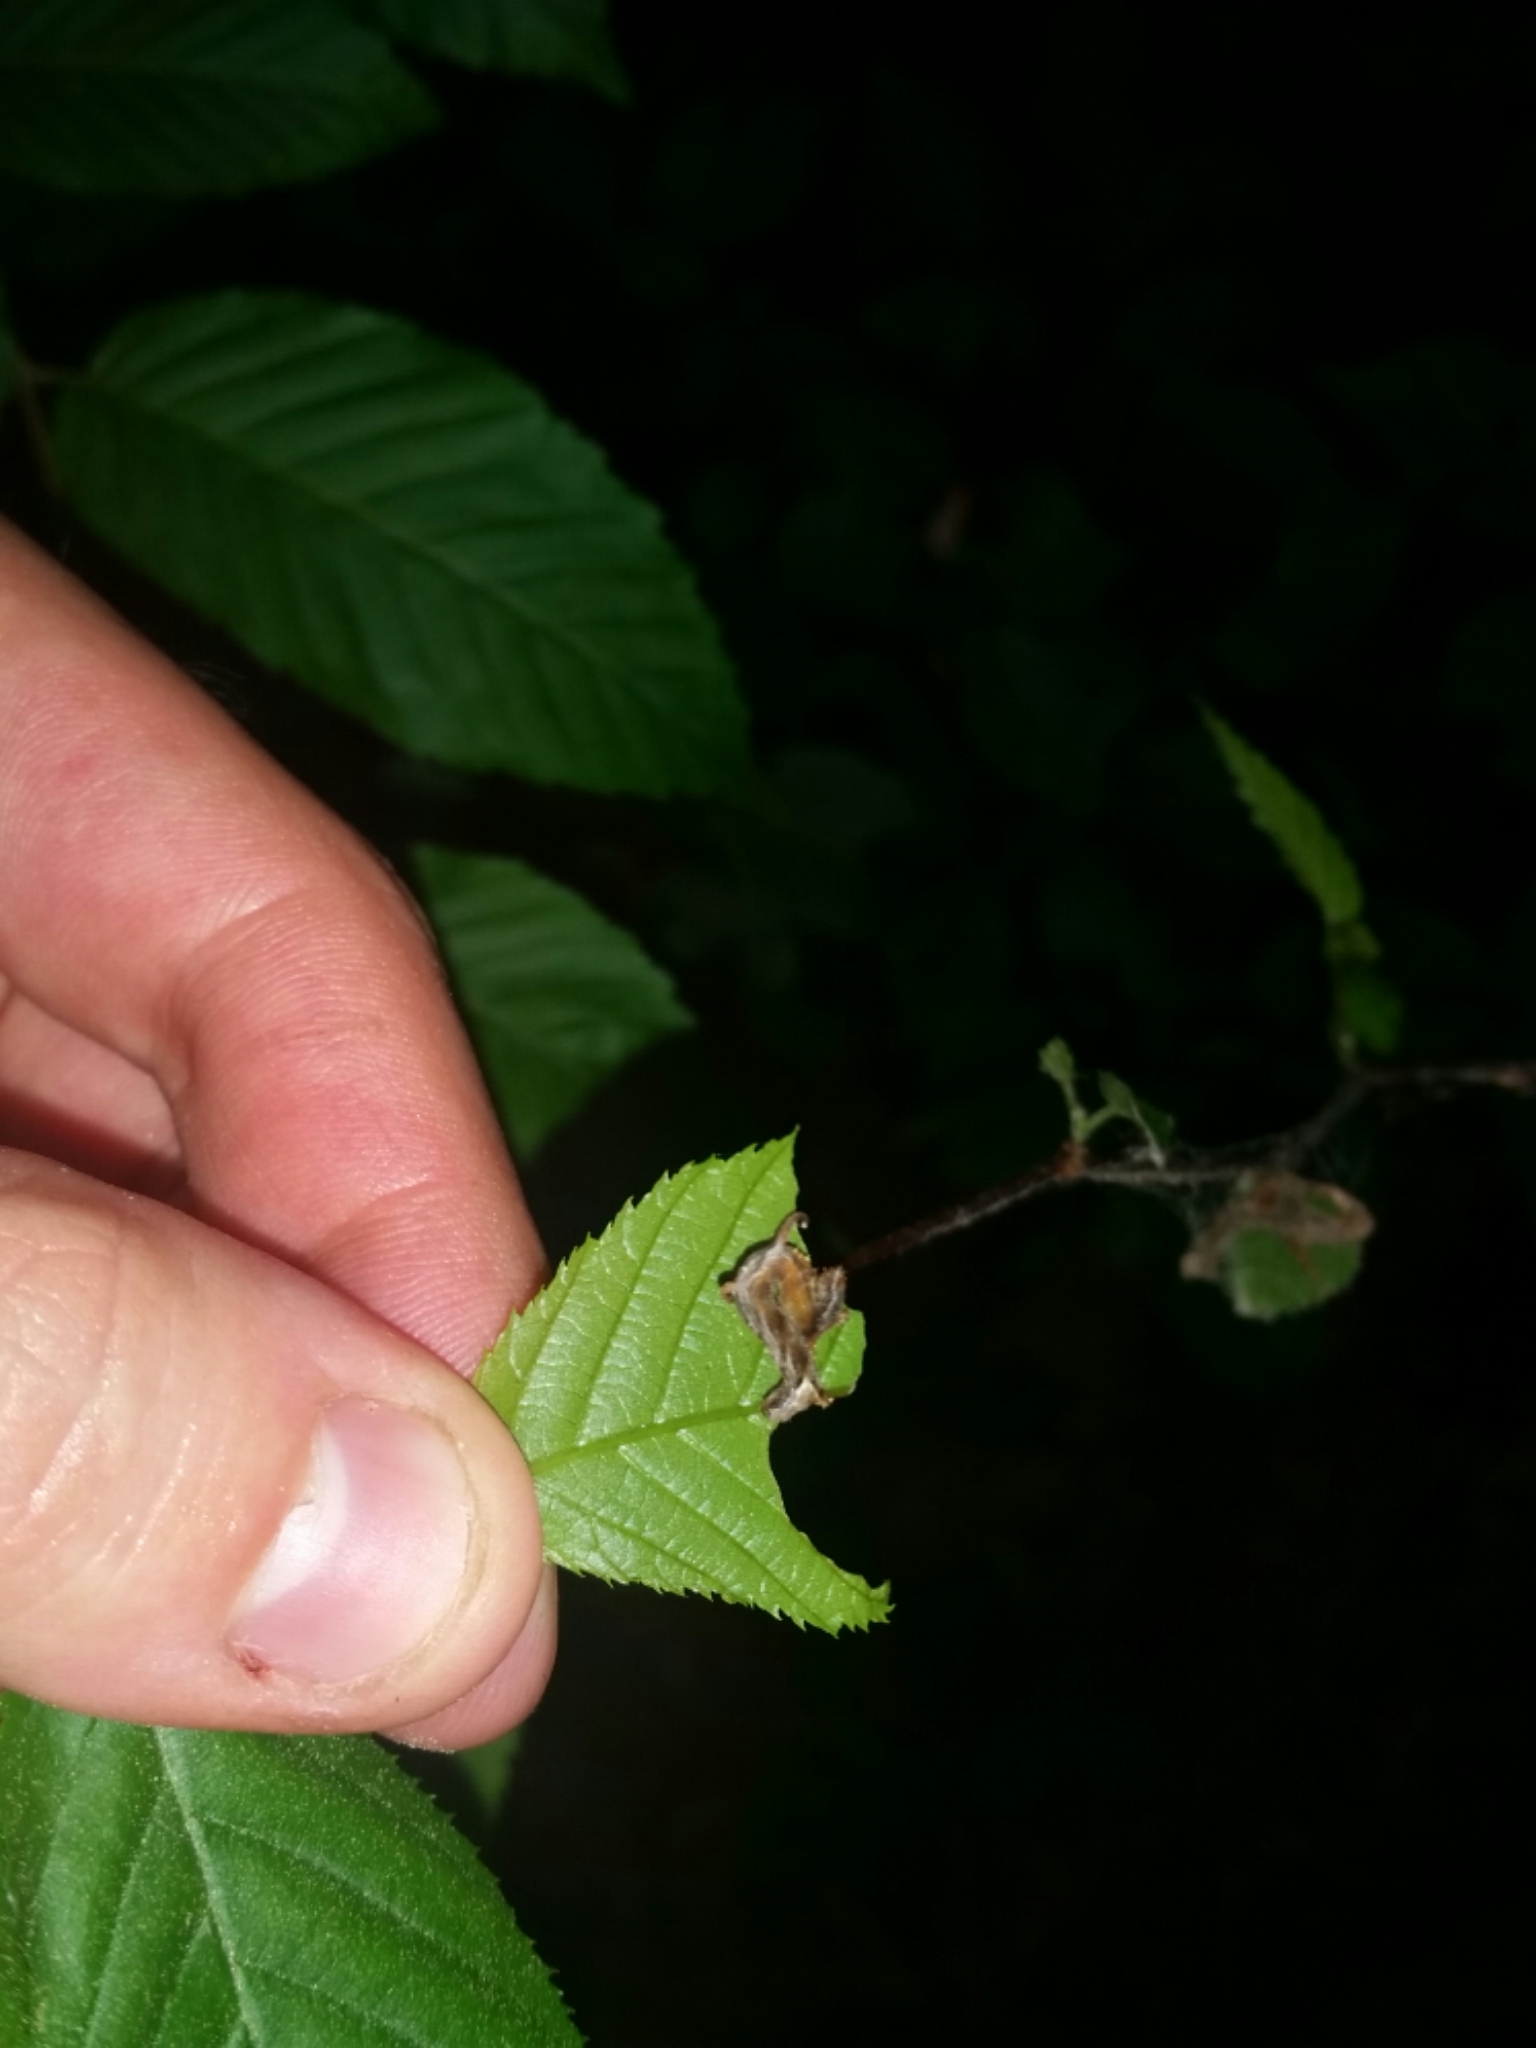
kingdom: Animalia
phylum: Arthropoda
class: Insecta
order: Lepidoptera
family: Geometridae
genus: Nematocampa
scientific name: Nematocampa resistaria
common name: Horned spanworm moth
